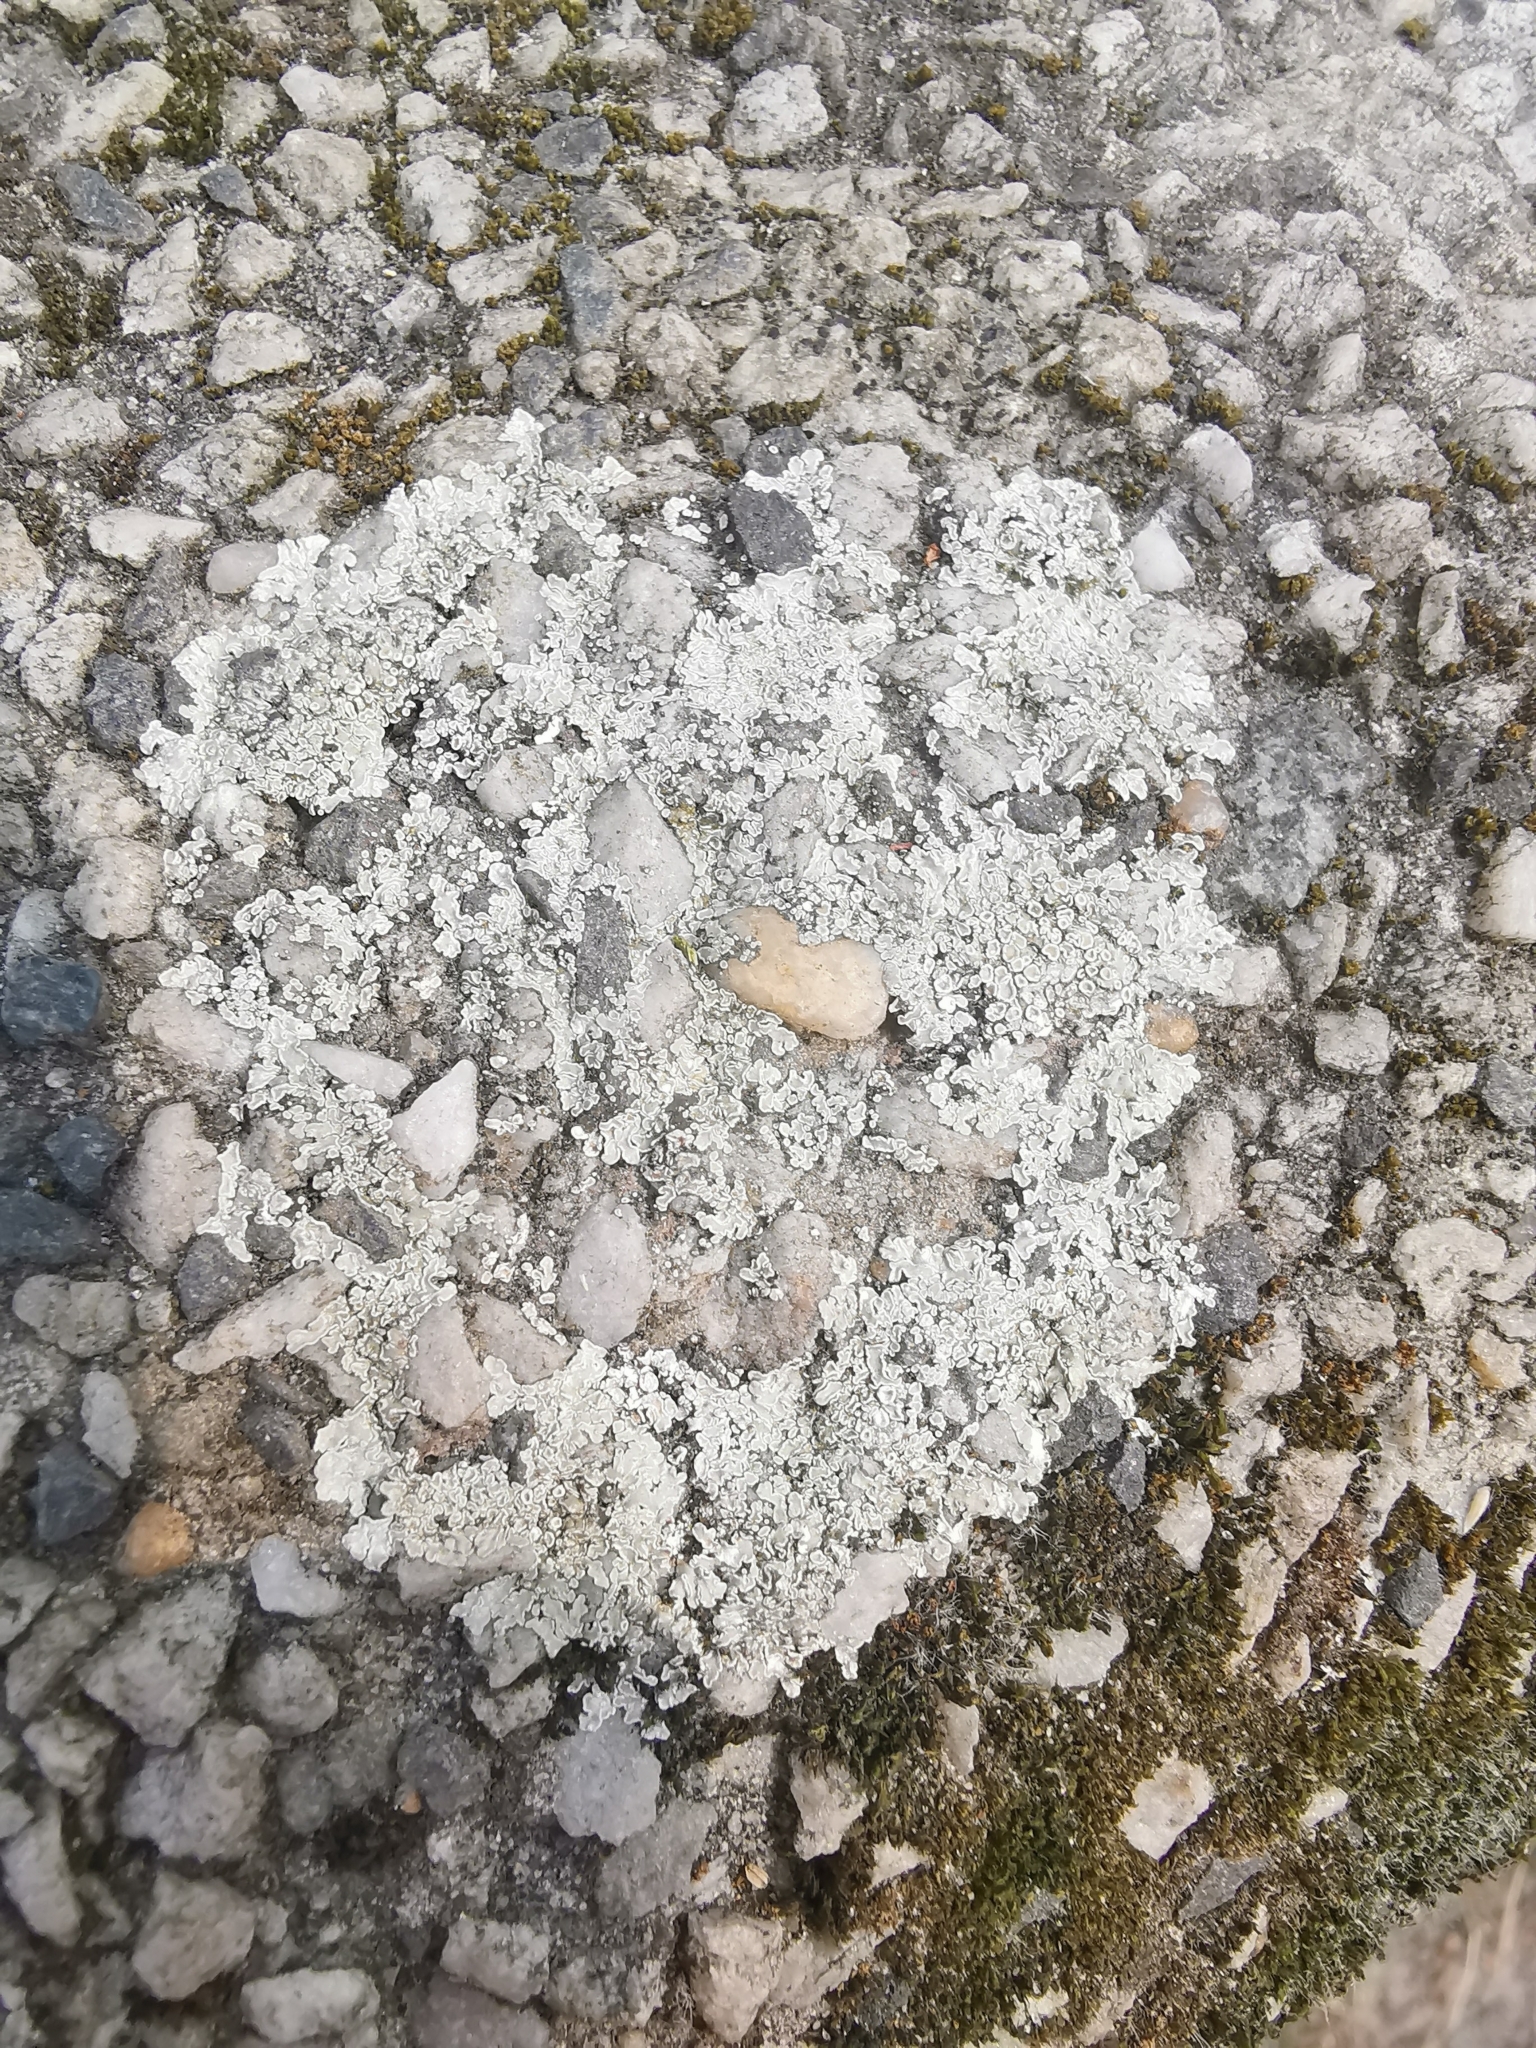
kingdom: Fungi
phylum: Ascomycota
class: Lecanoromycetes
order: Lecanorales
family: Lecanoraceae
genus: Protoparmeliopsis
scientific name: Protoparmeliopsis muralis
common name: Stonewall rim lichen
